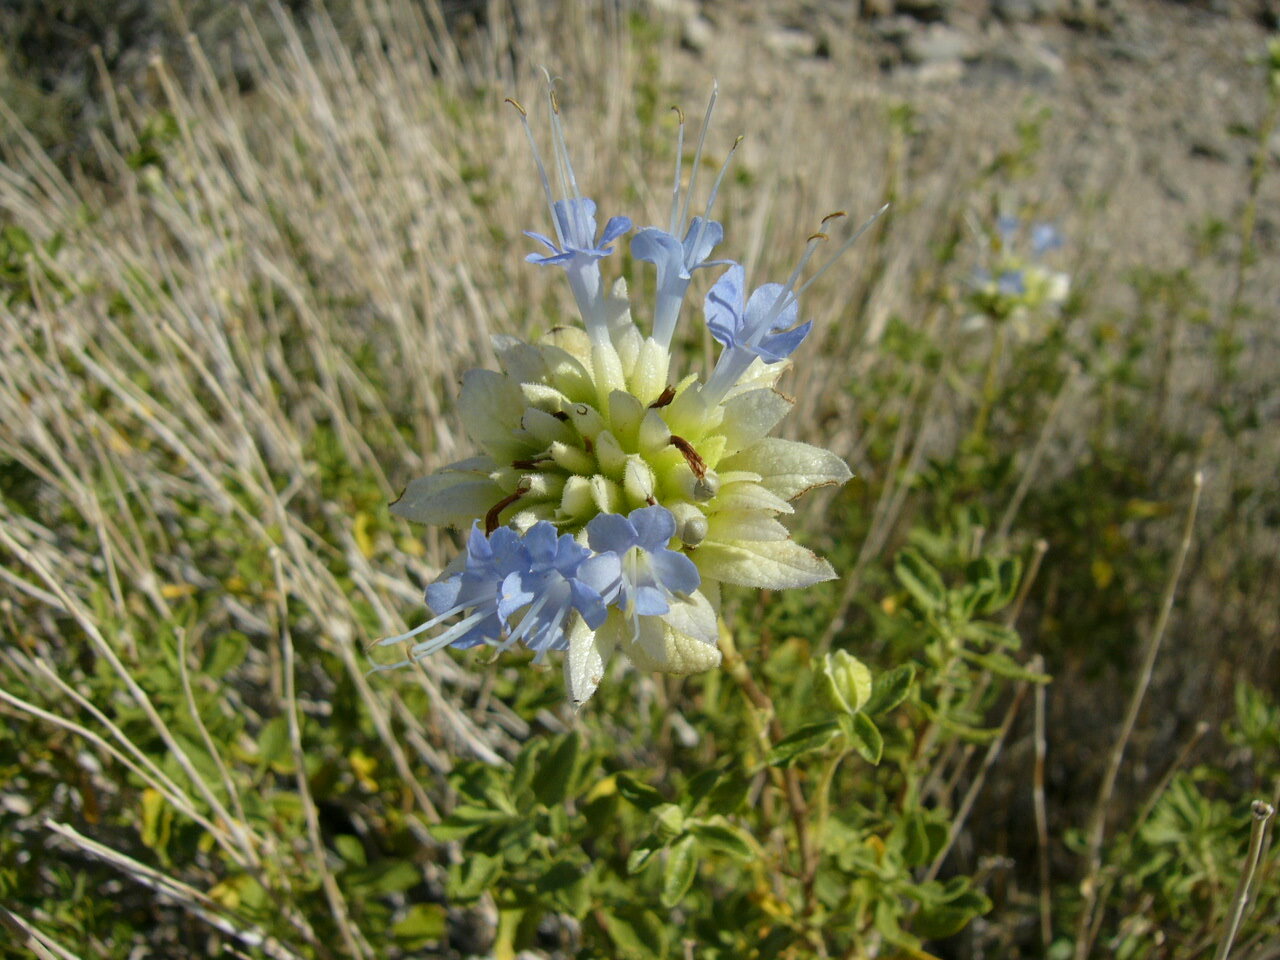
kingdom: Plantae
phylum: Tracheophyta
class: Magnoliopsida
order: Lamiales
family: Lamiaceae
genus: Salvia
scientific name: Salvia mohavensis
